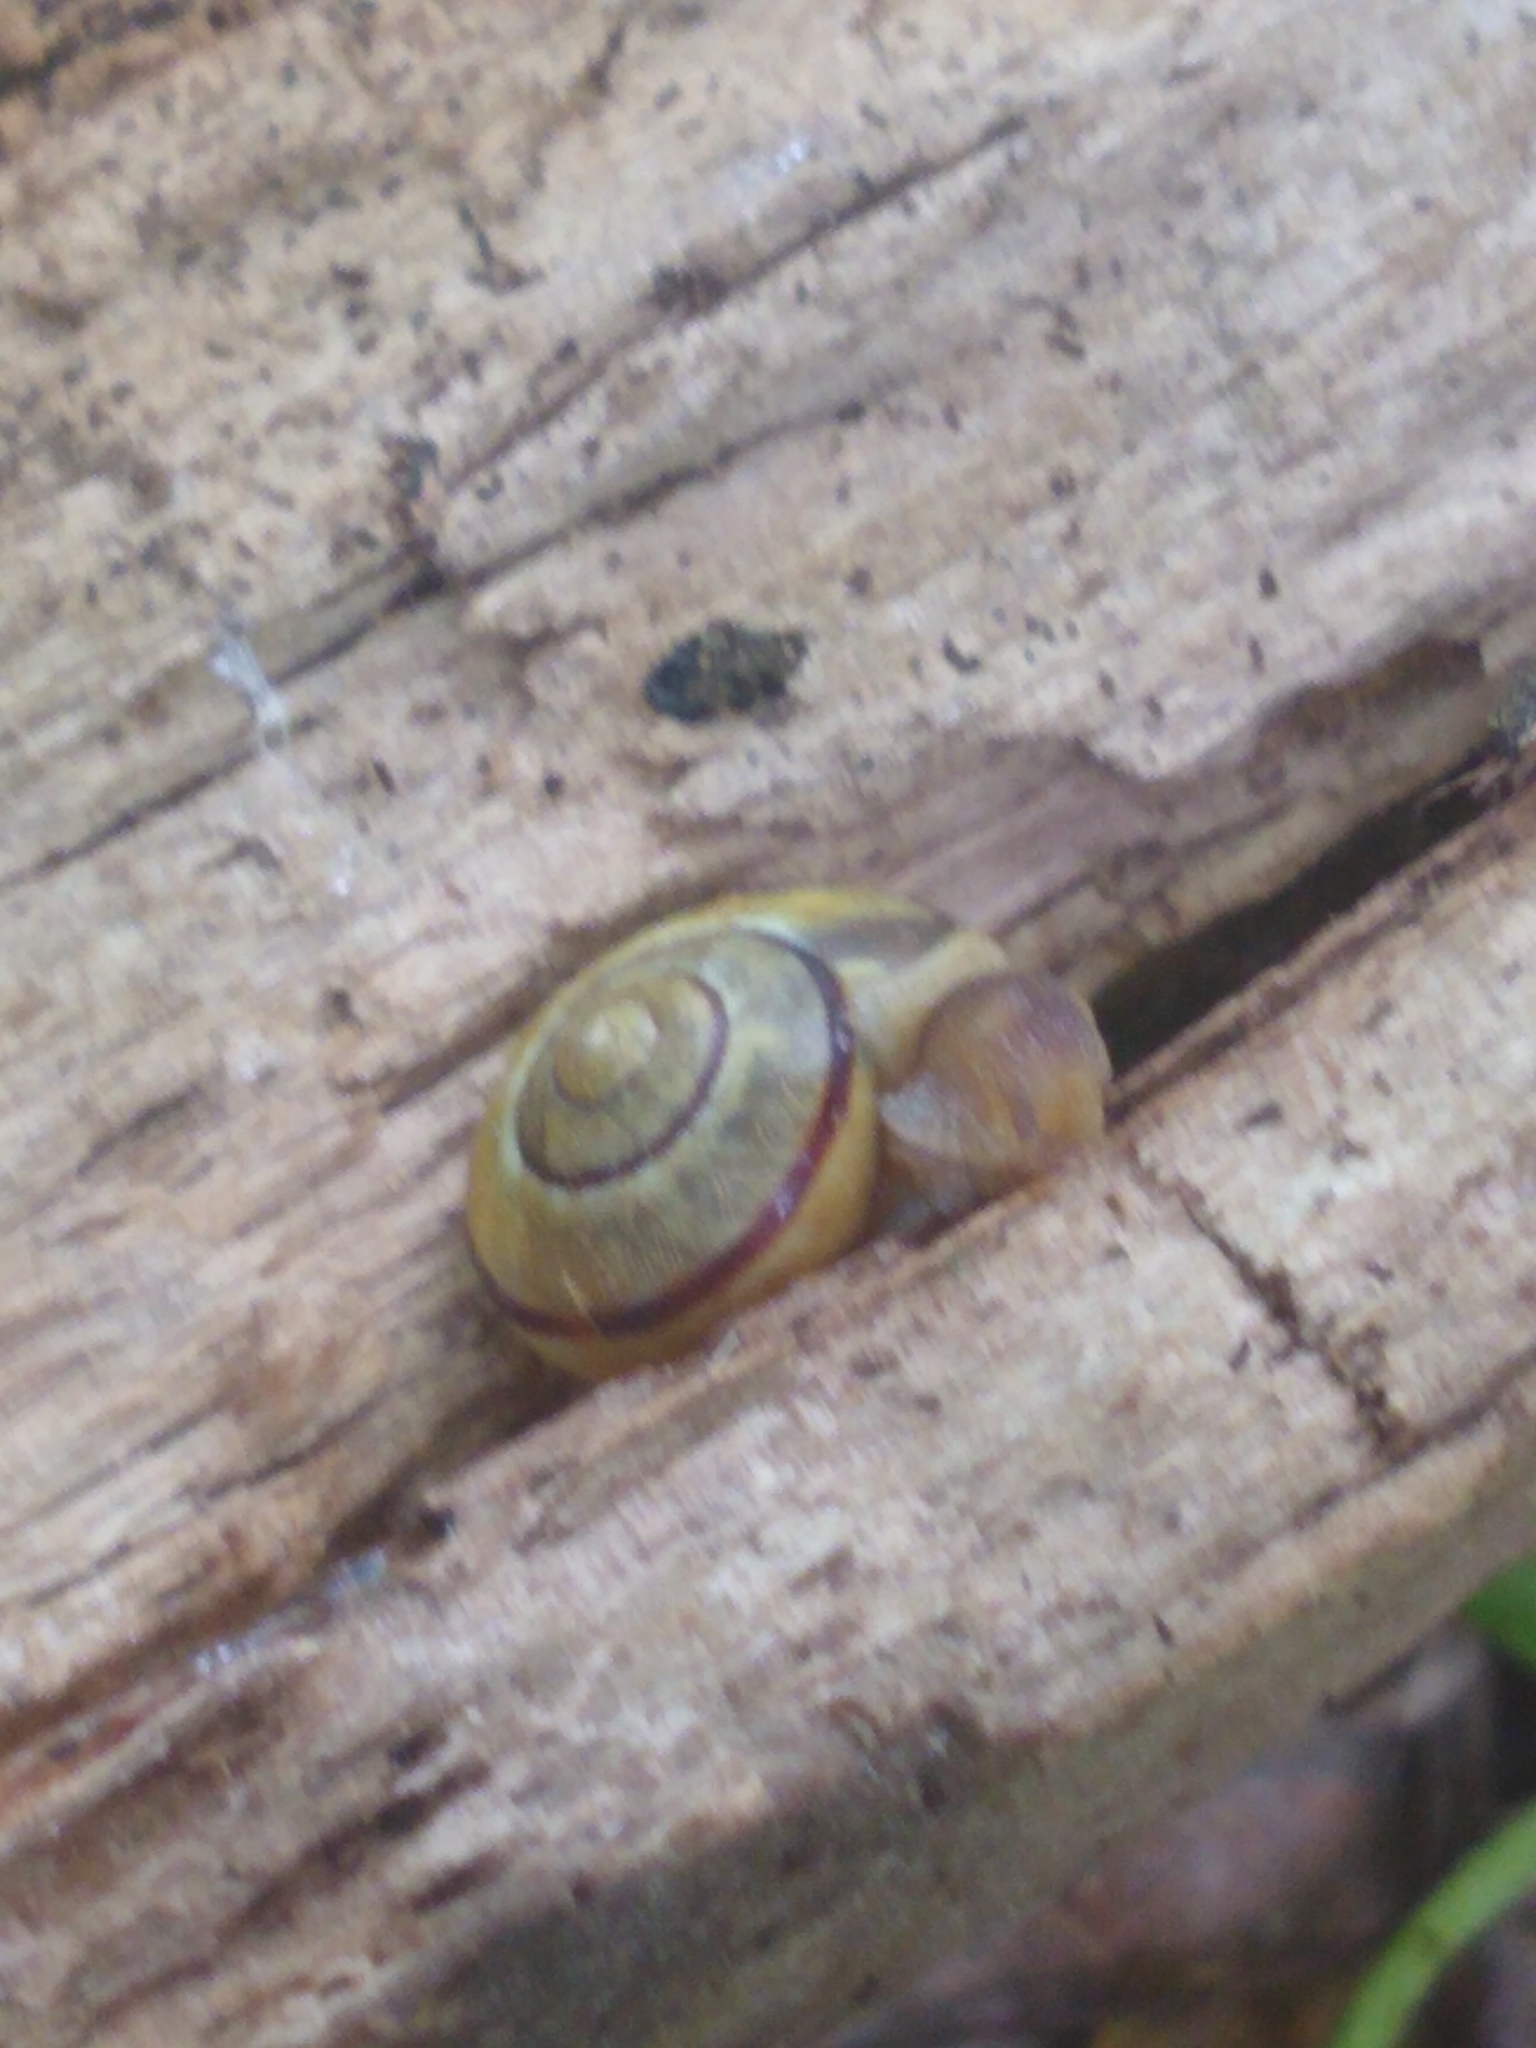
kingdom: Animalia
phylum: Mollusca
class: Gastropoda
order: Stylommatophora
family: Helicidae
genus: Cepaea
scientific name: Cepaea
